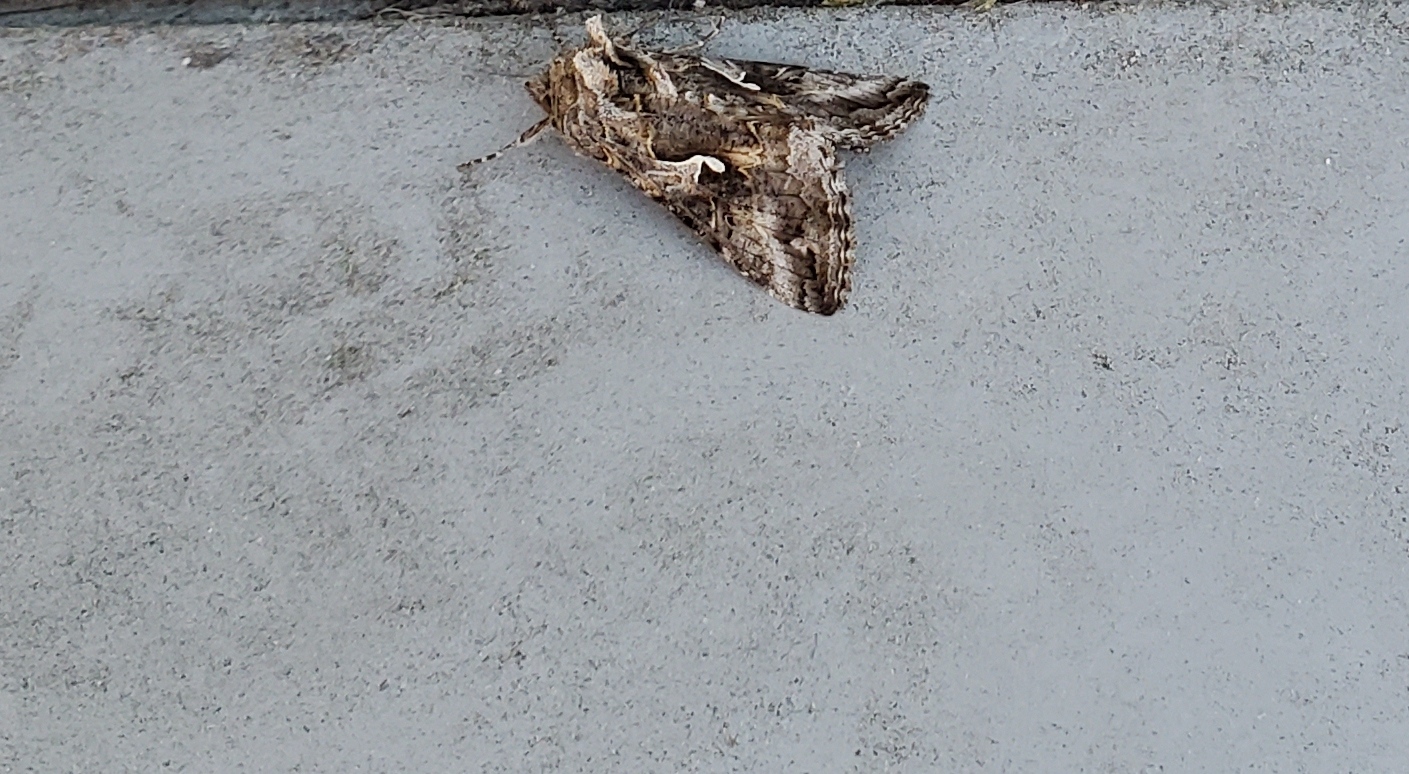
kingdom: Animalia
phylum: Arthropoda
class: Insecta
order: Lepidoptera
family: Noctuidae
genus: Autographa
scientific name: Autographa californica
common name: Alfalfa looper
